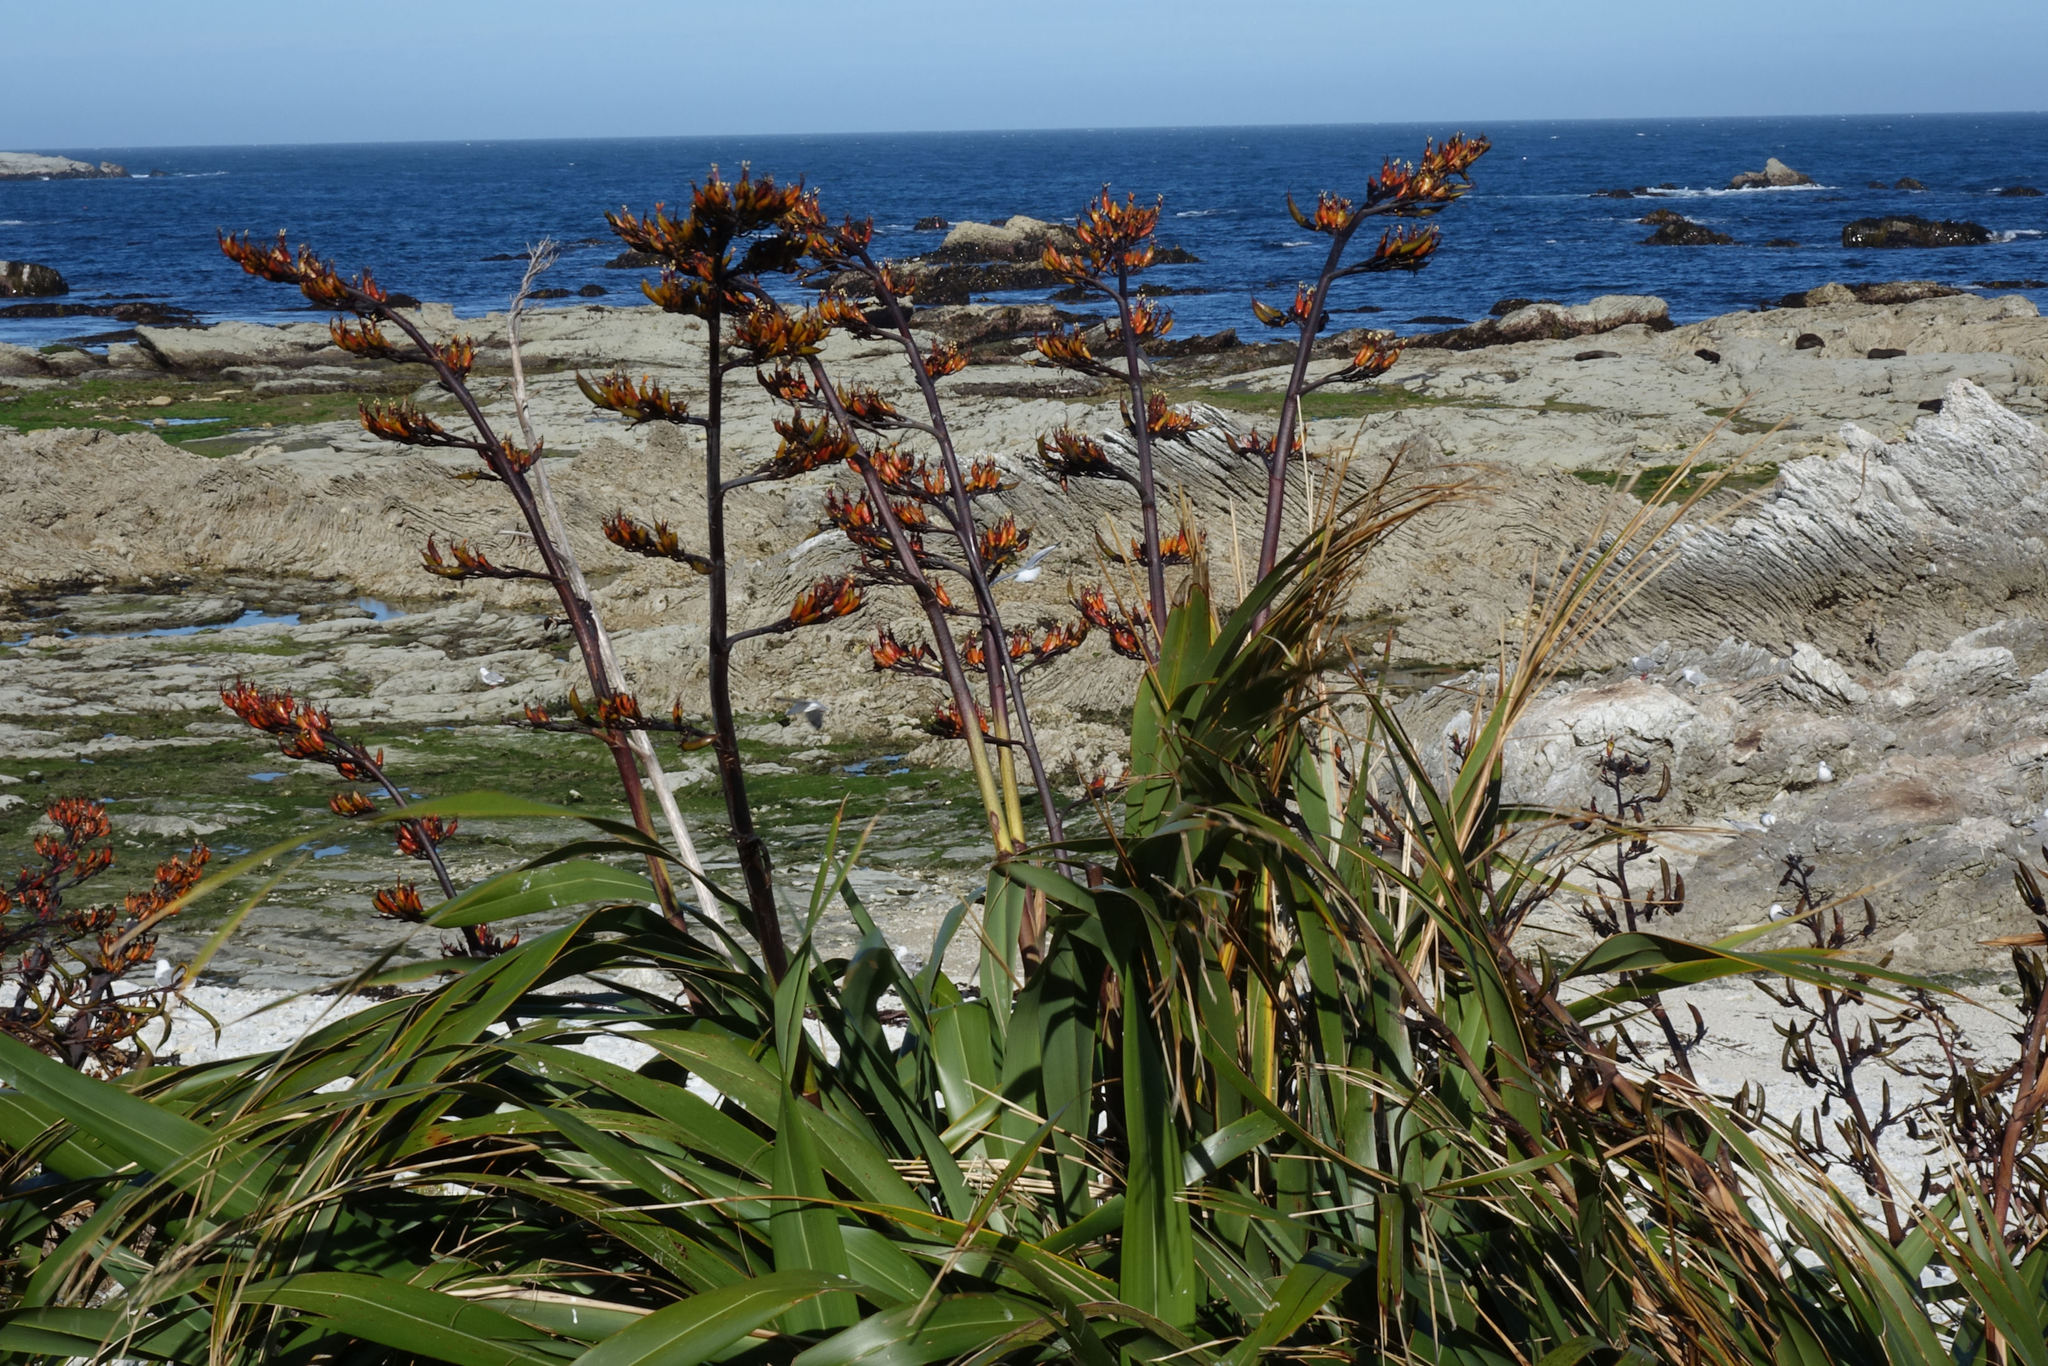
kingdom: Plantae
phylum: Tracheophyta
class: Liliopsida
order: Asparagales
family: Asphodelaceae
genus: Phormium
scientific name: Phormium colensoi
